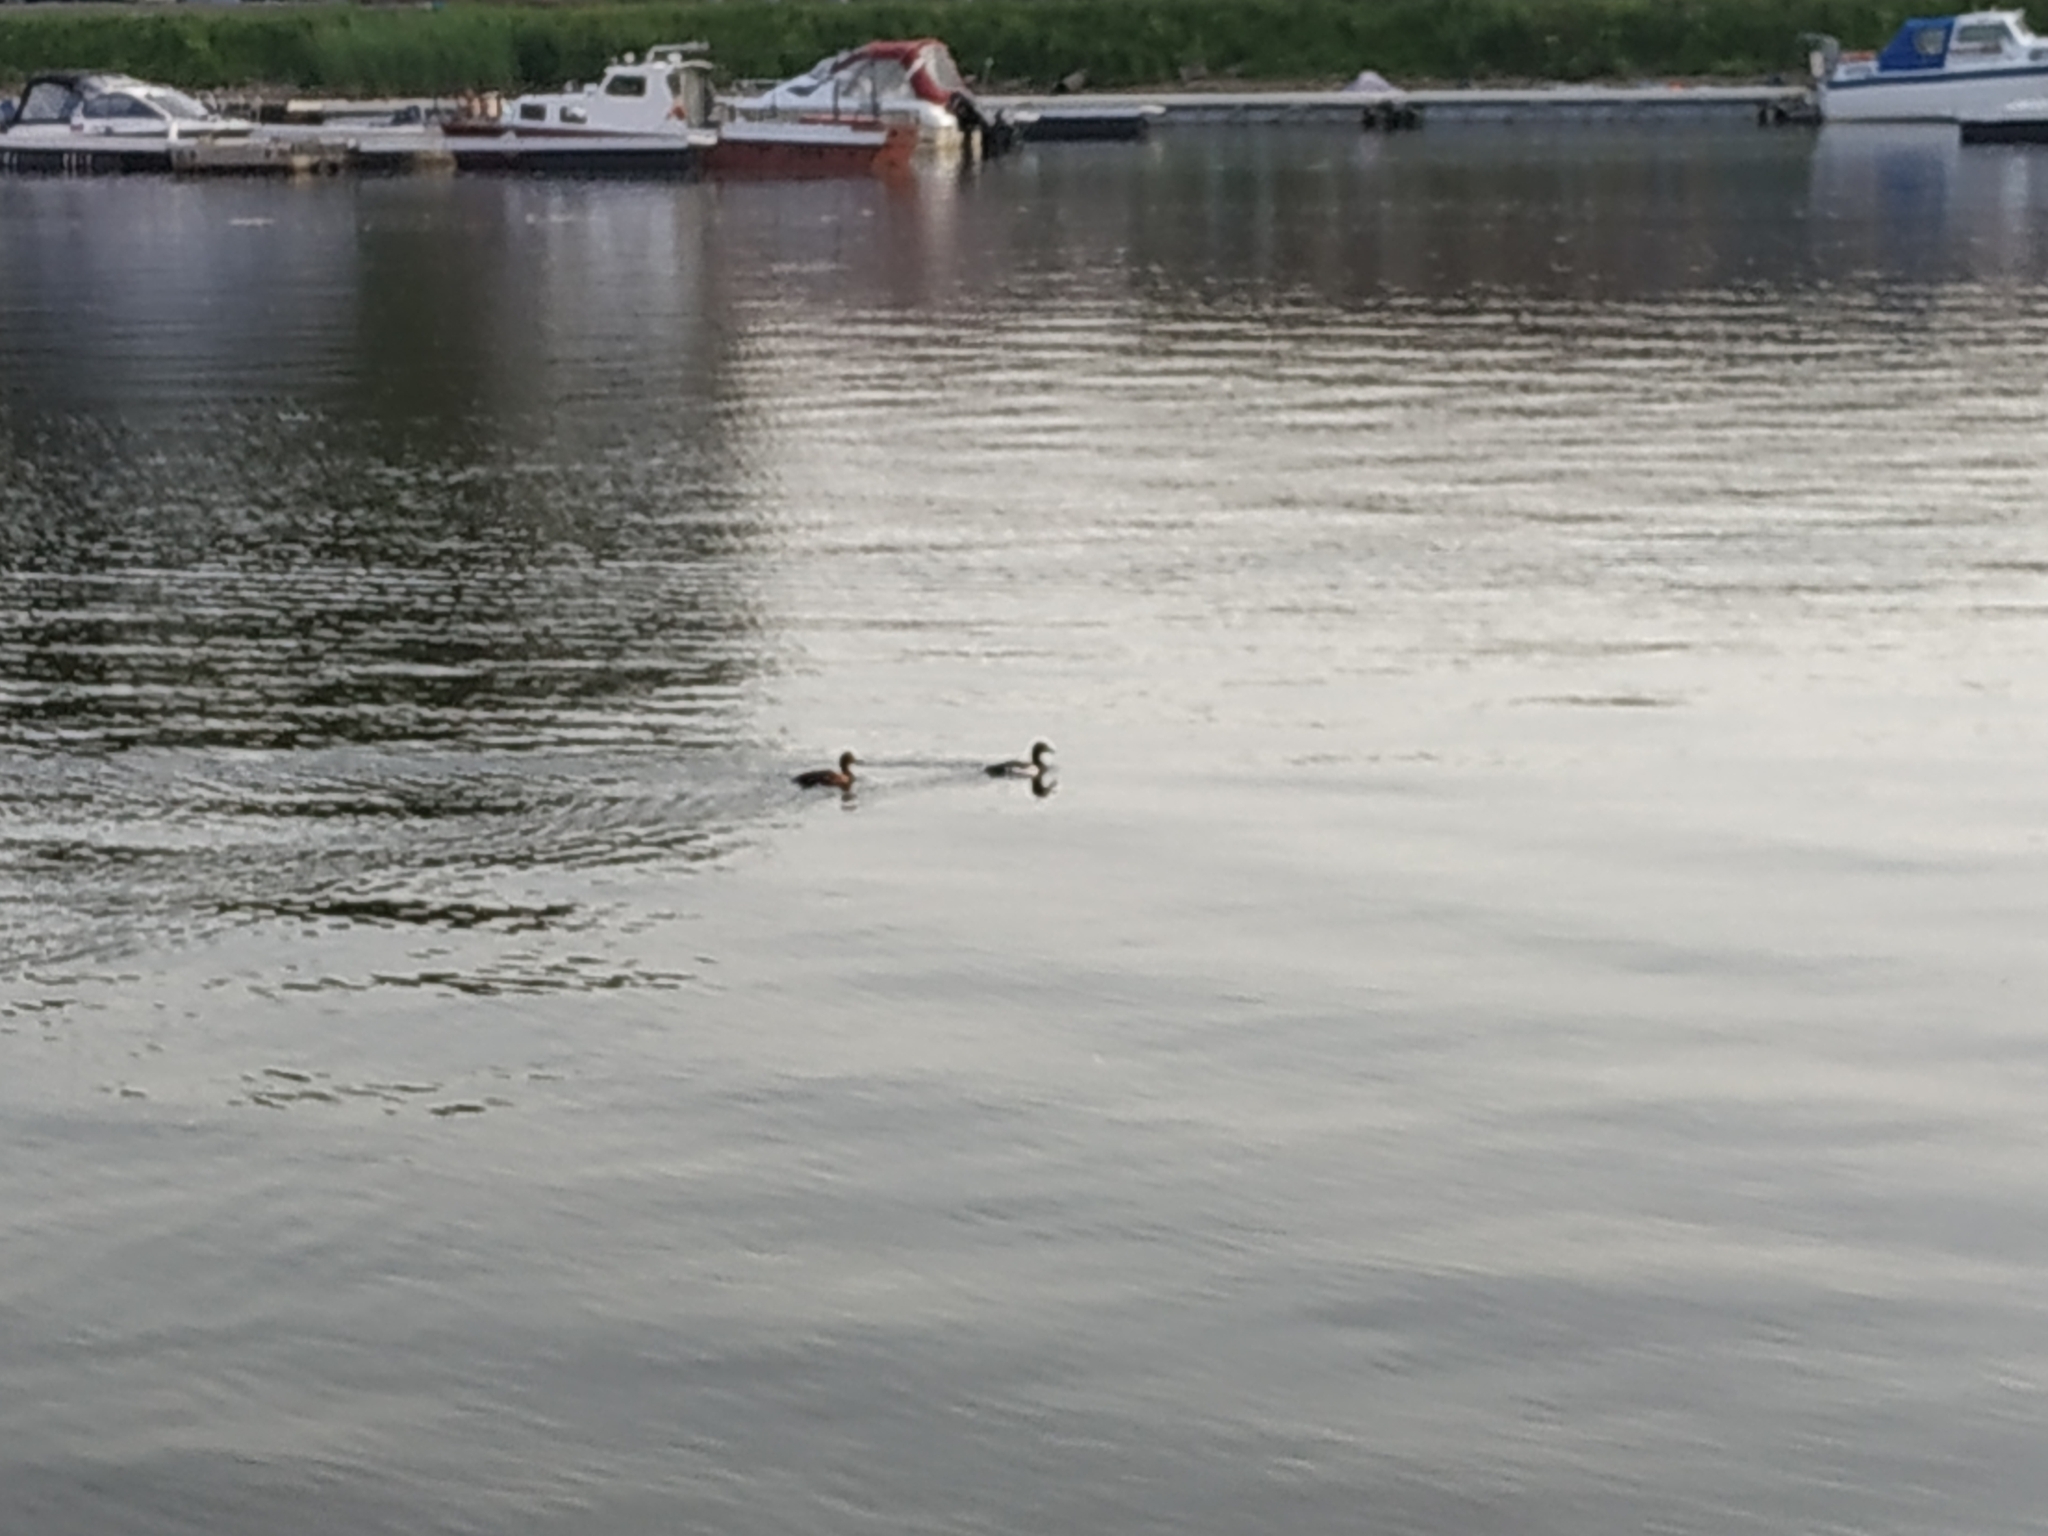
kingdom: Animalia
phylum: Chordata
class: Aves
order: Anseriformes
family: Anatidae
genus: Aythya
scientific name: Aythya fuligula
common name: Tufted duck
